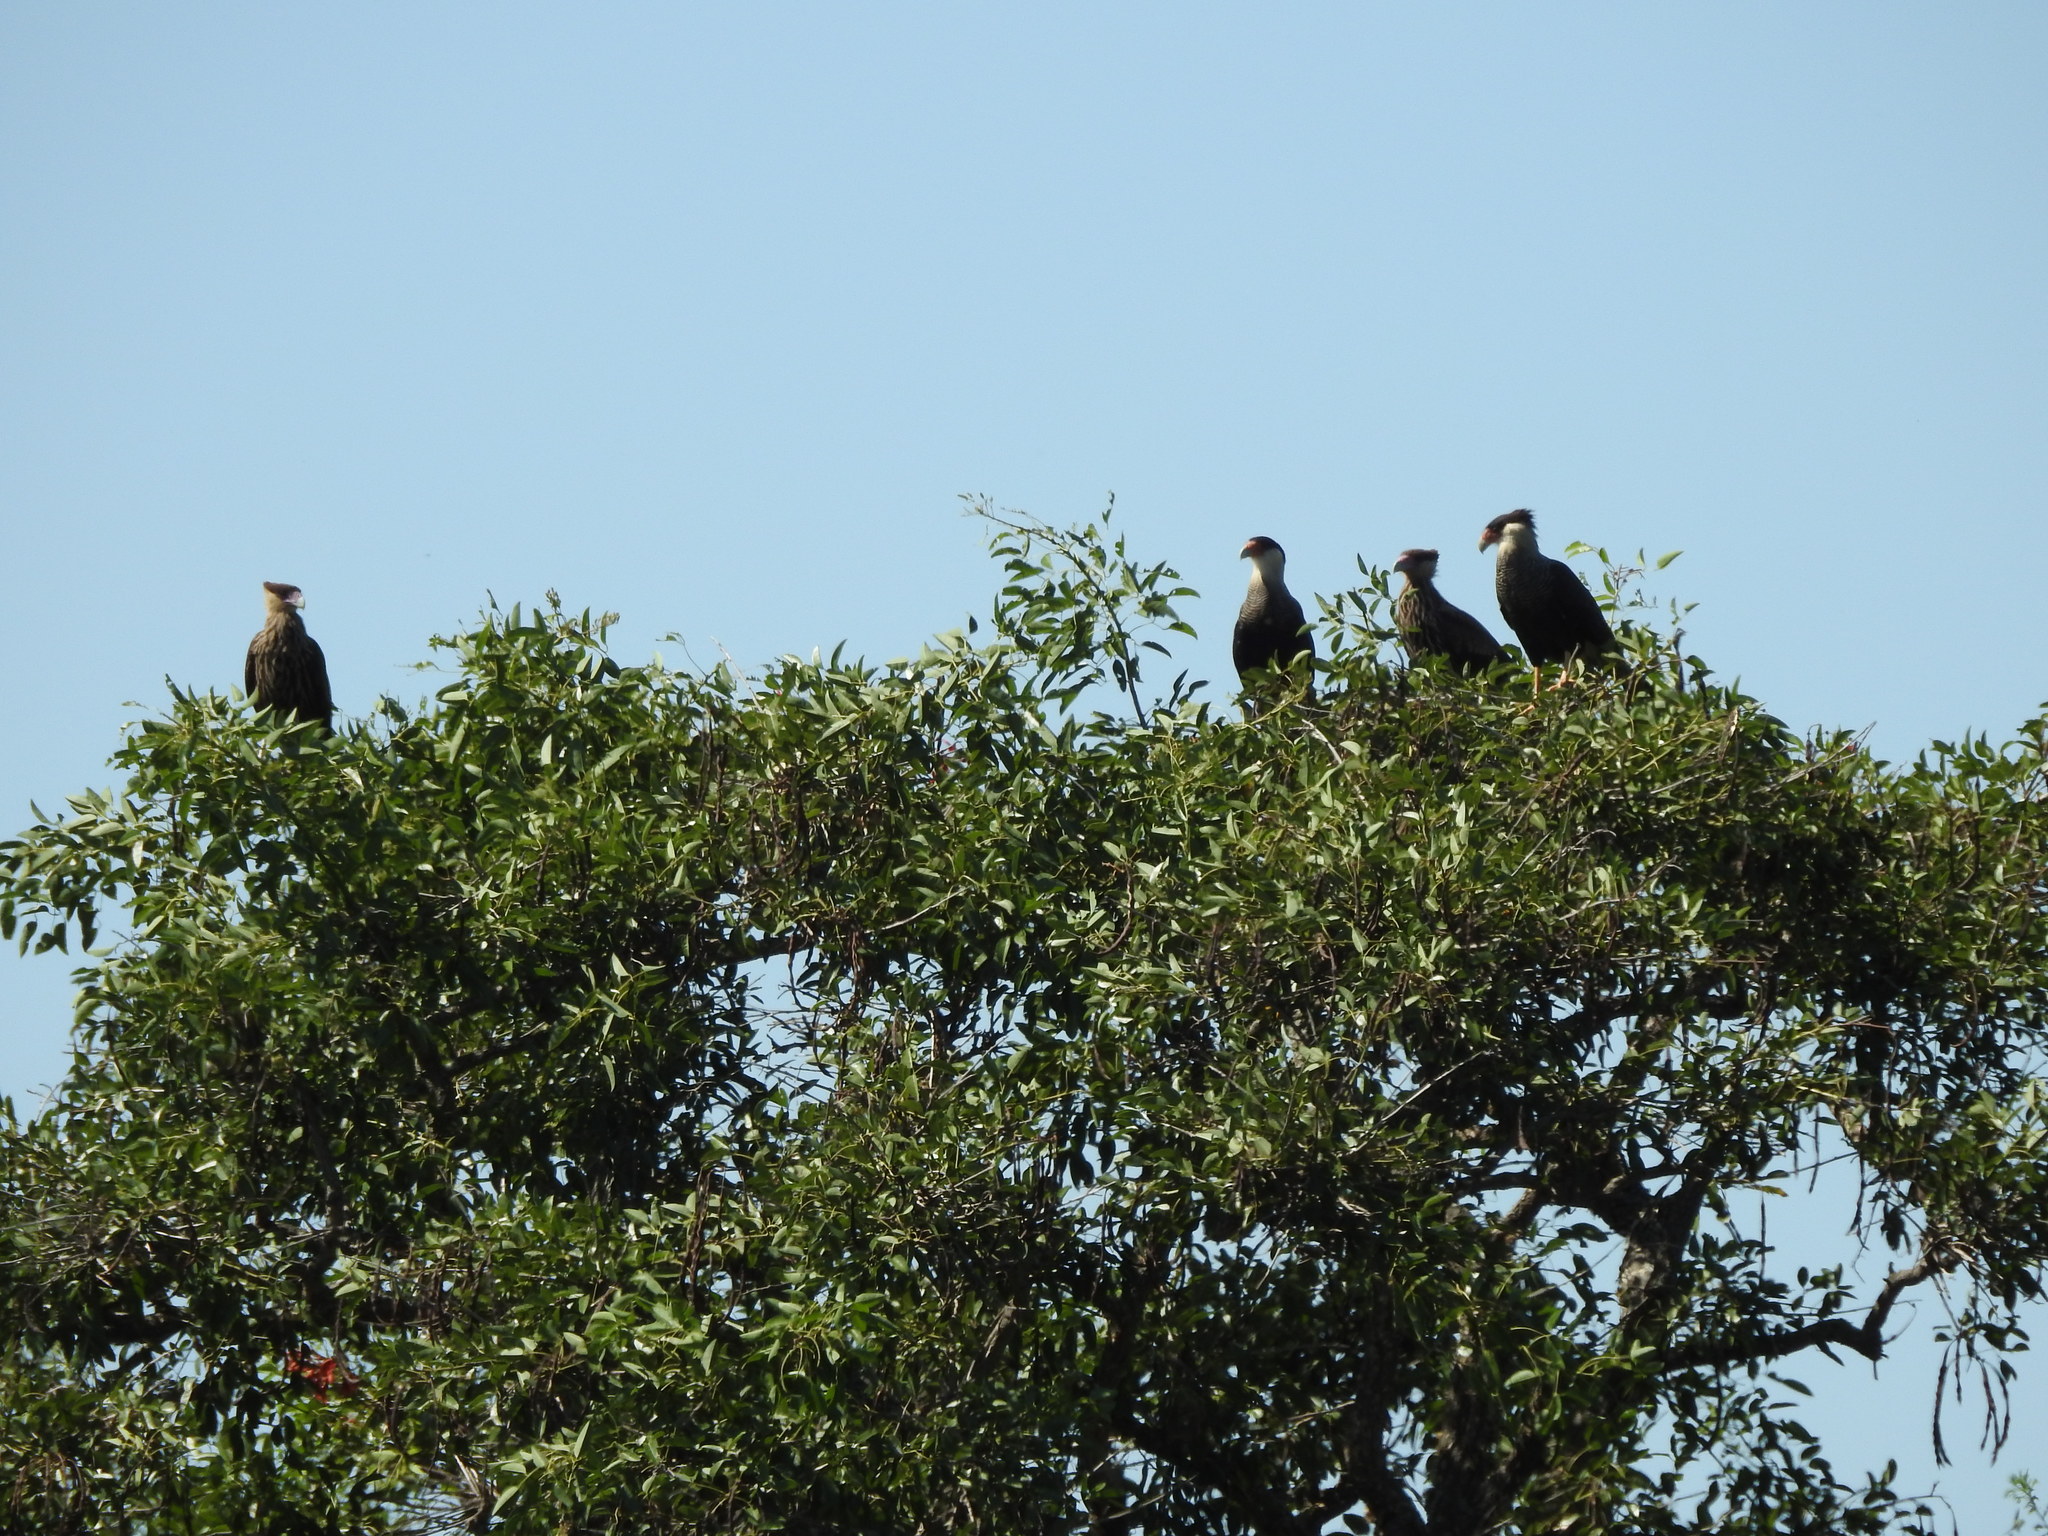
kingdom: Animalia
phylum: Chordata
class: Aves
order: Falconiformes
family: Falconidae
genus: Caracara
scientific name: Caracara plancus
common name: Southern caracara
